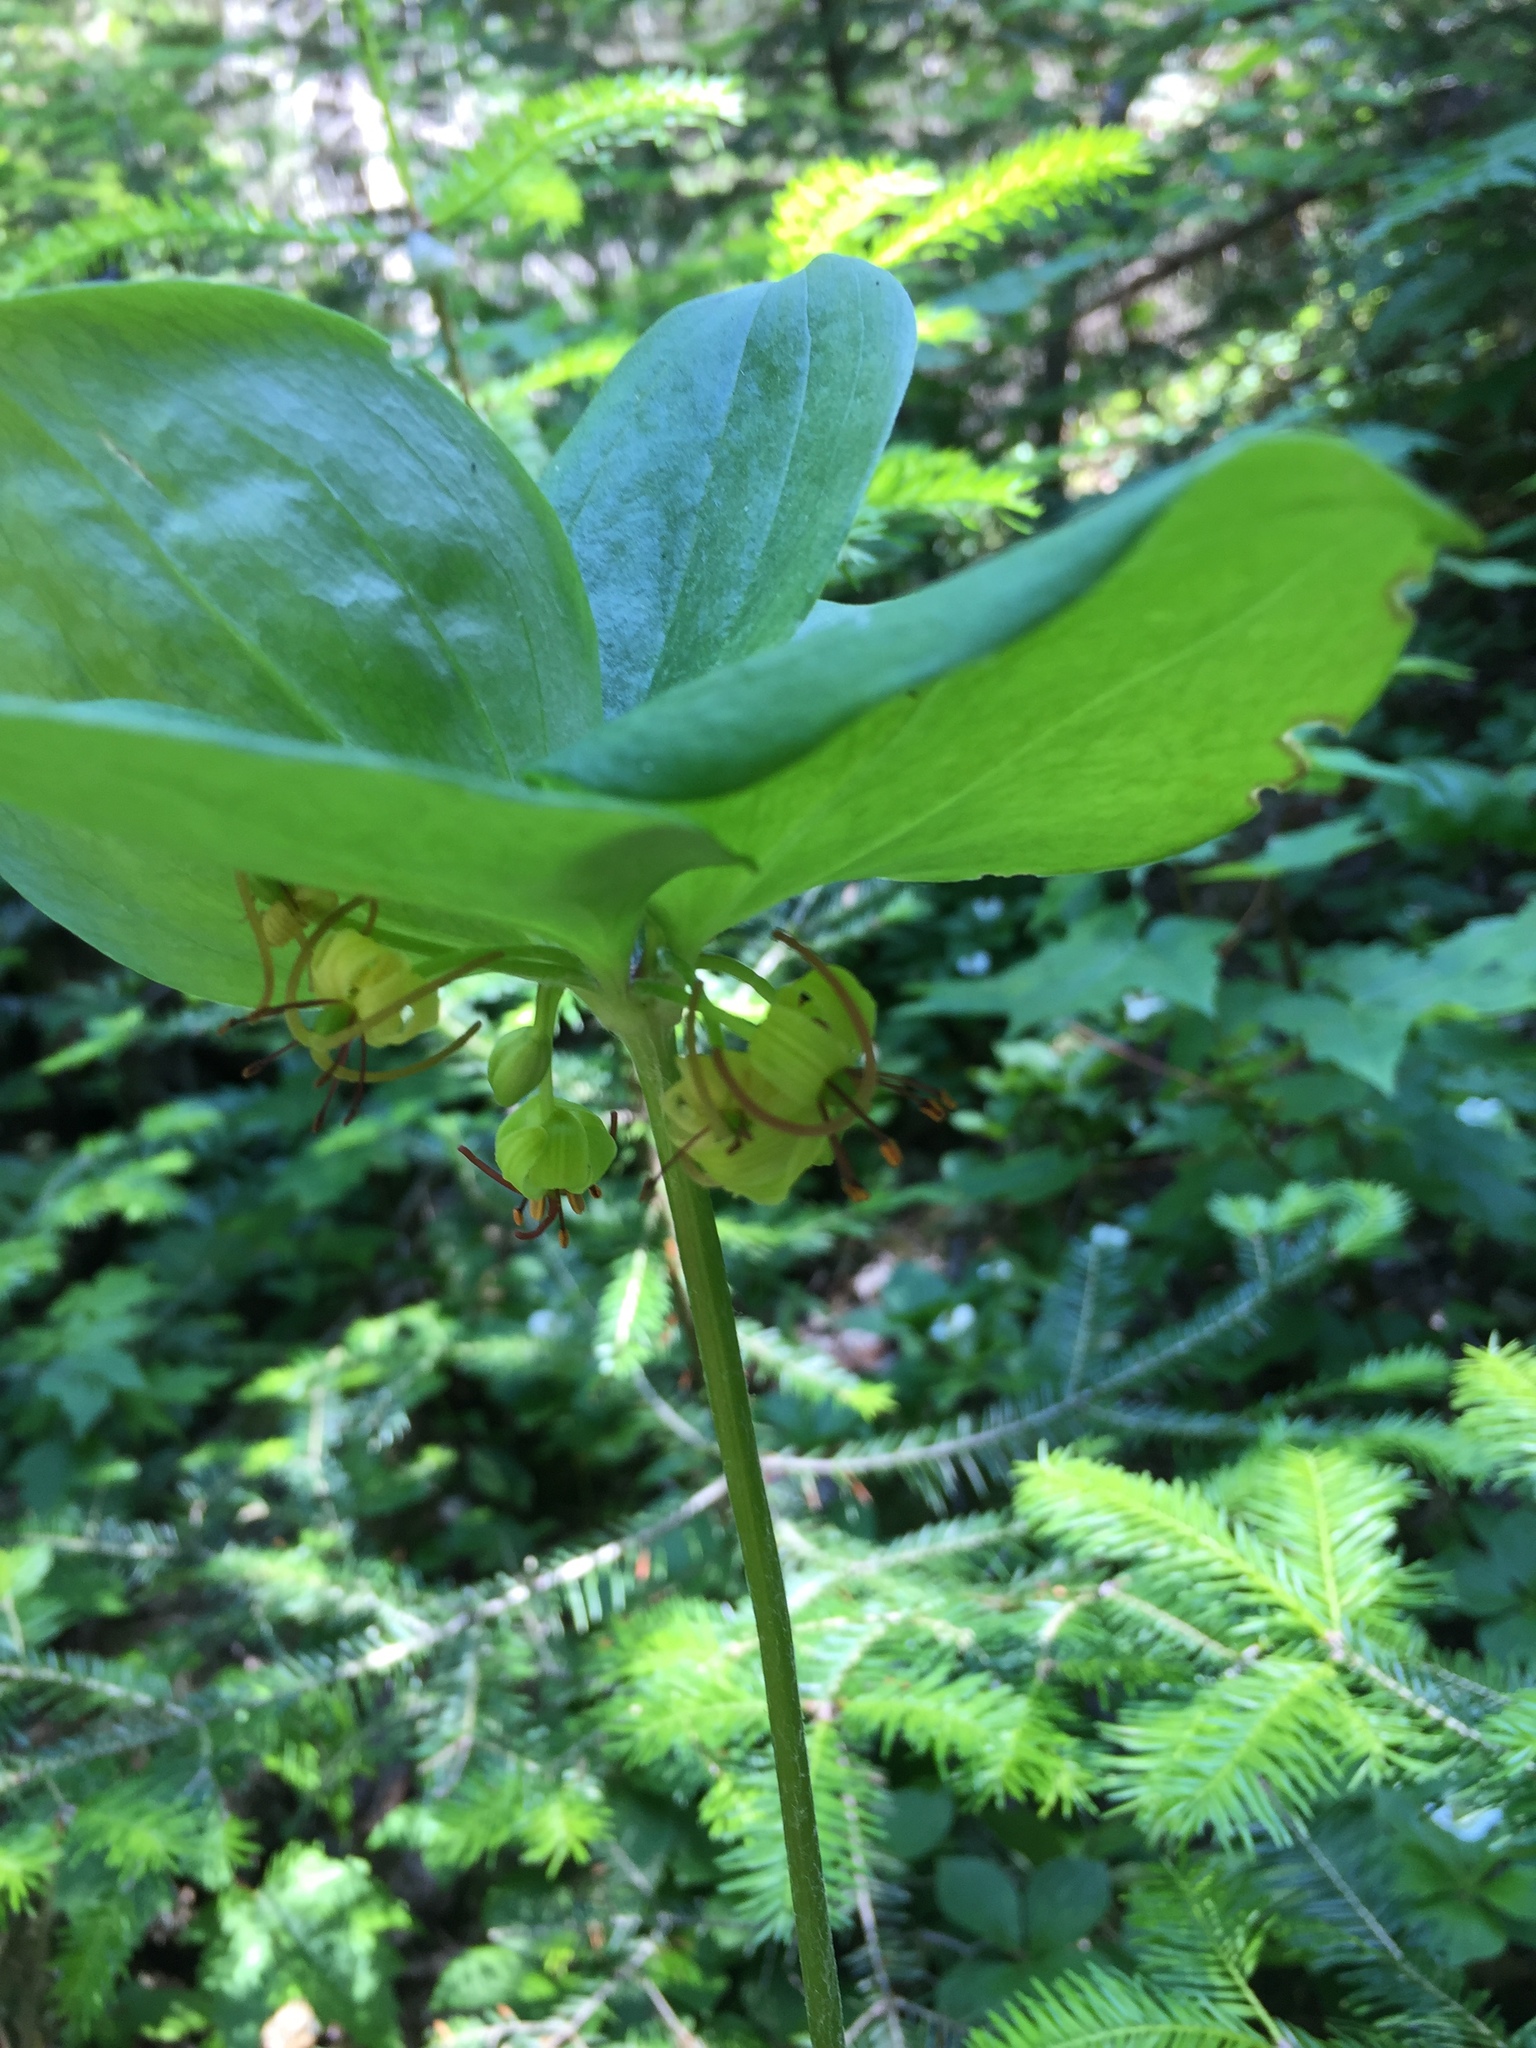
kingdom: Plantae
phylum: Tracheophyta
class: Liliopsida
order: Liliales
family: Liliaceae
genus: Medeola
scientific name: Medeola virginiana
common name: Indian cucumber-root
